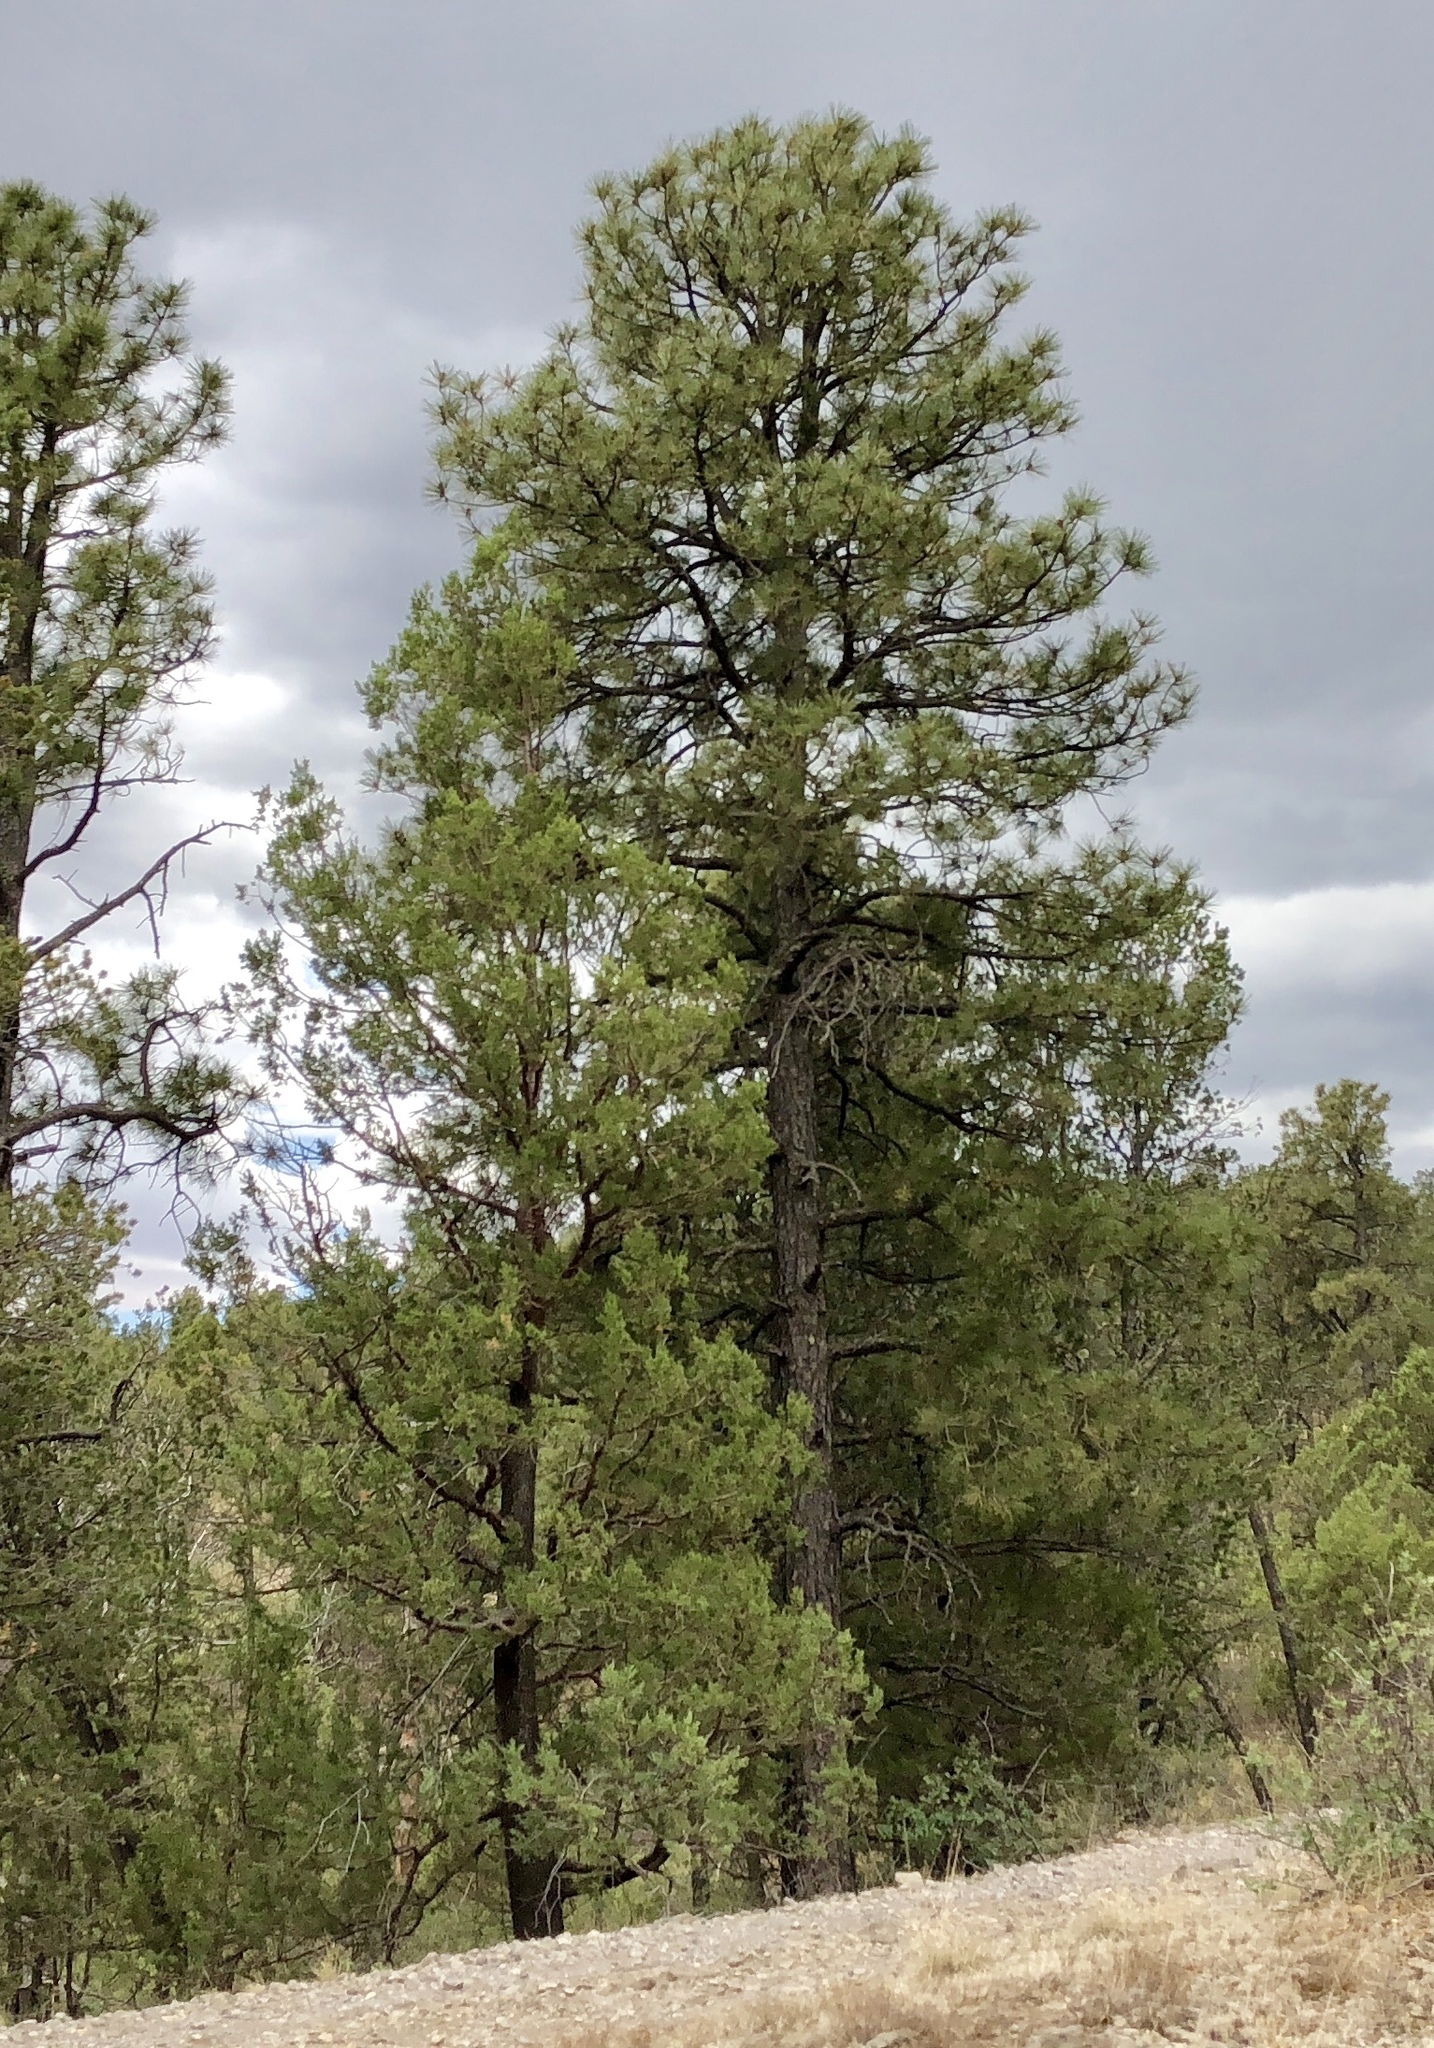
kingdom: Plantae
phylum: Tracheophyta
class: Pinopsida
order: Pinales
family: Pinaceae
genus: Pinus
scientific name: Pinus ponderosa
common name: Western yellow-pine
